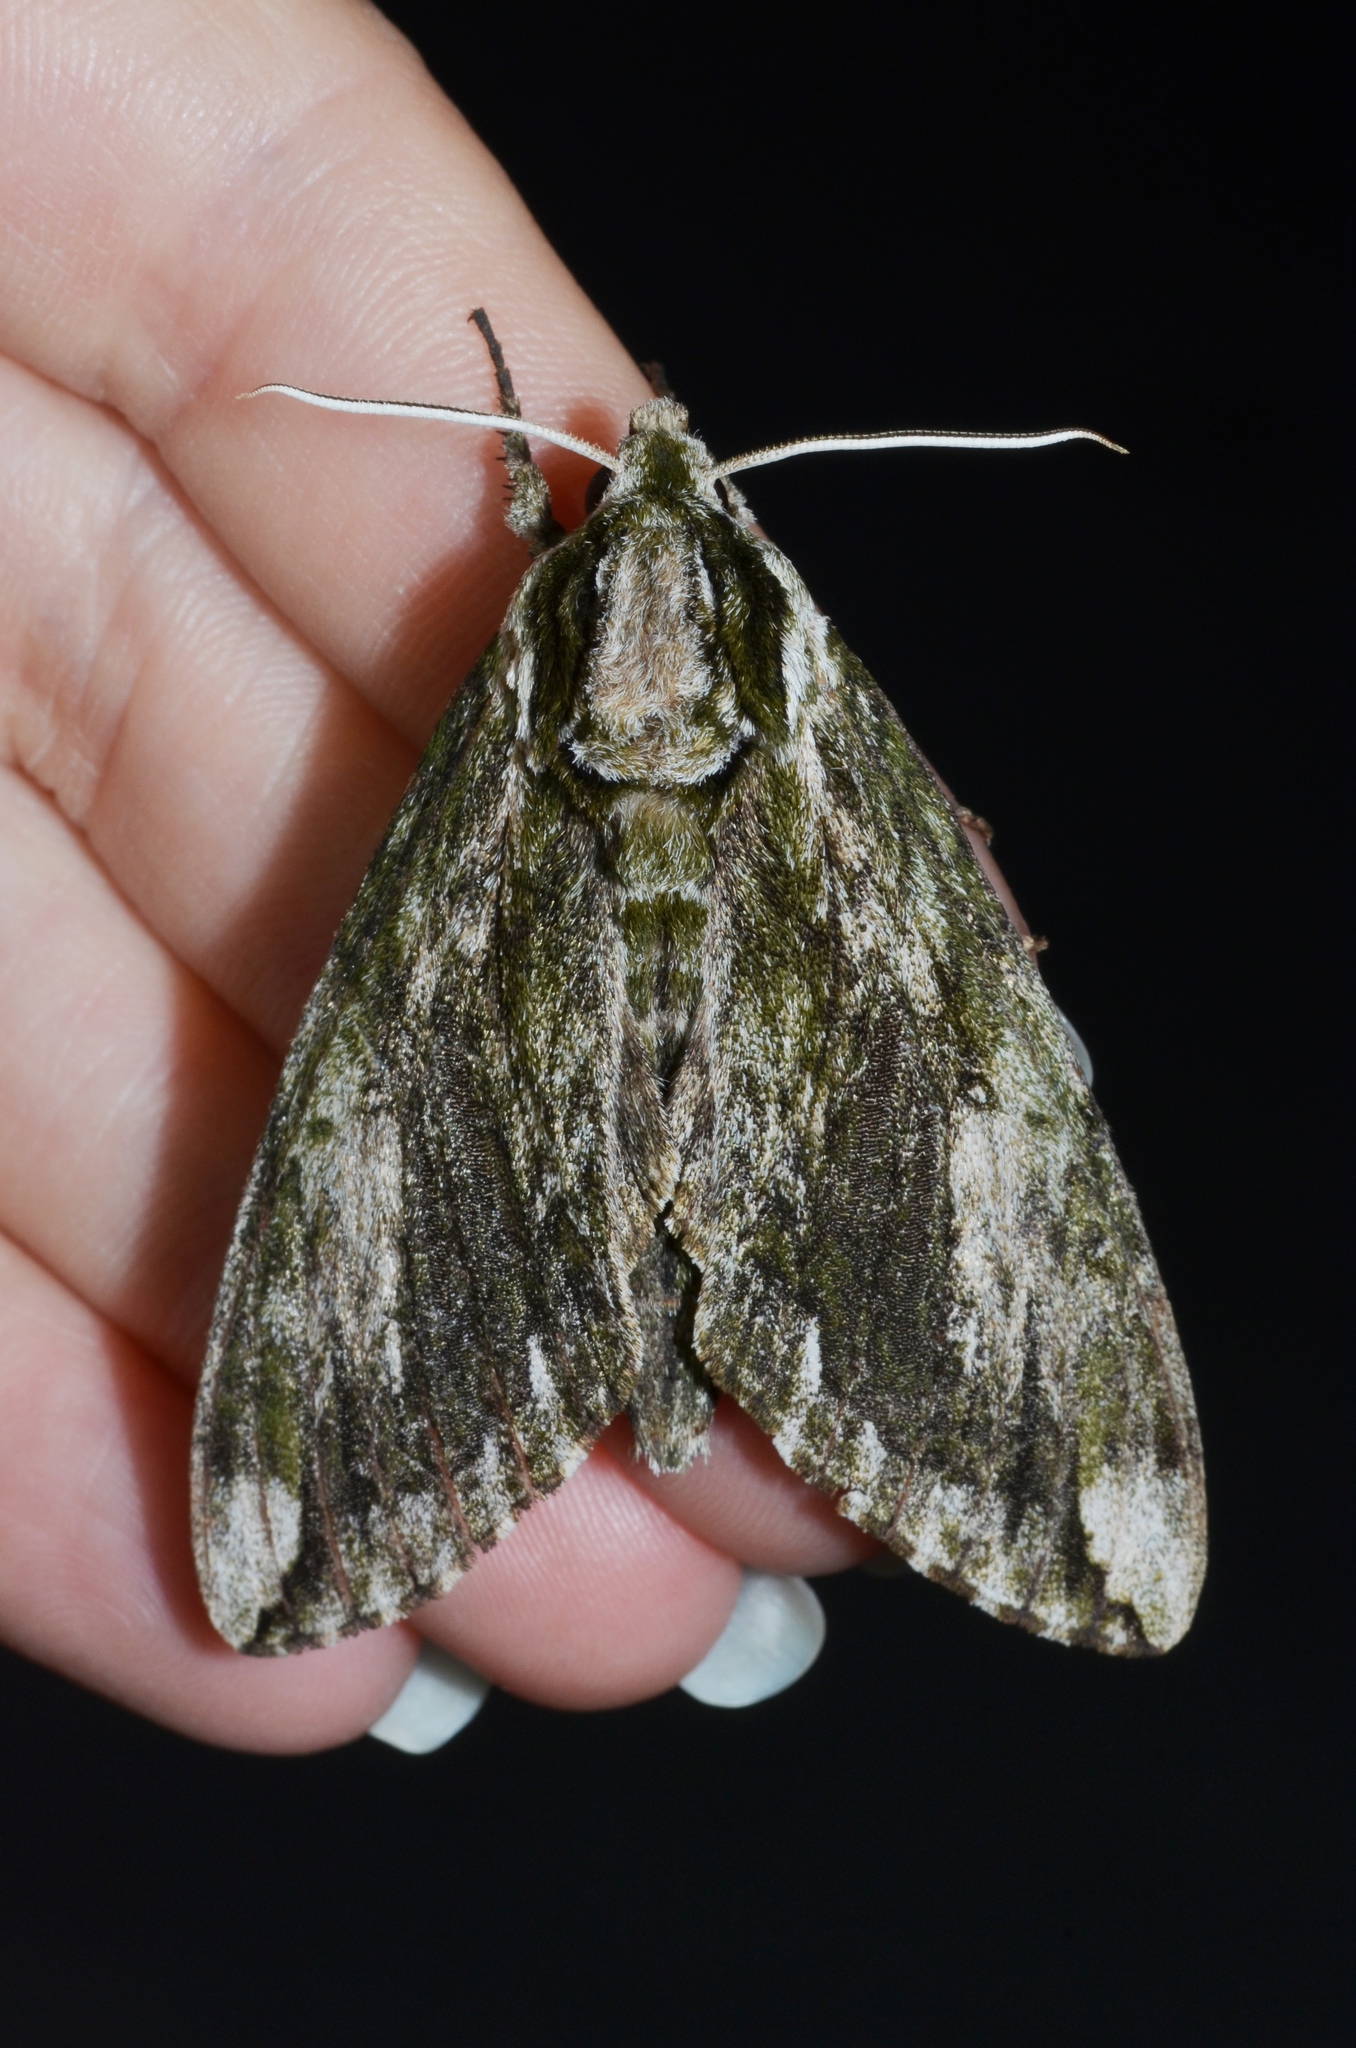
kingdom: Animalia
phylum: Arthropoda
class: Insecta
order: Lepidoptera
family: Sphingidae
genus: Ceratomia
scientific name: Ceratomia hageni
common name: Hagen's sphinx
